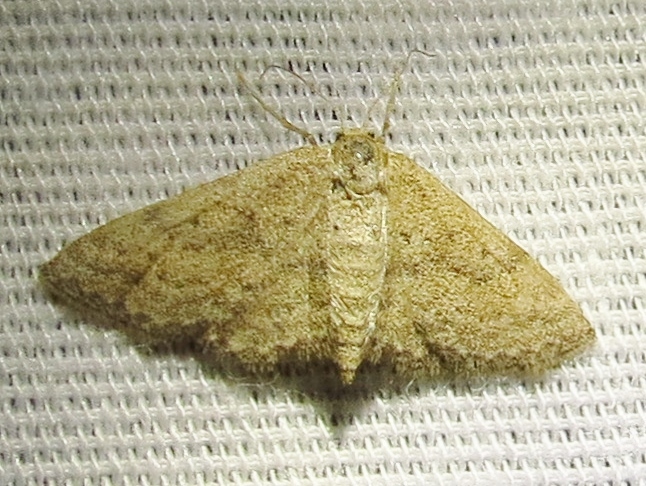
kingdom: Animalia
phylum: Arthropoda
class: Insecta
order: Lepidoptera
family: Geometridae
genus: Lobocleta
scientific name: Lobocleta plemyraria
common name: Straight-lined wave
